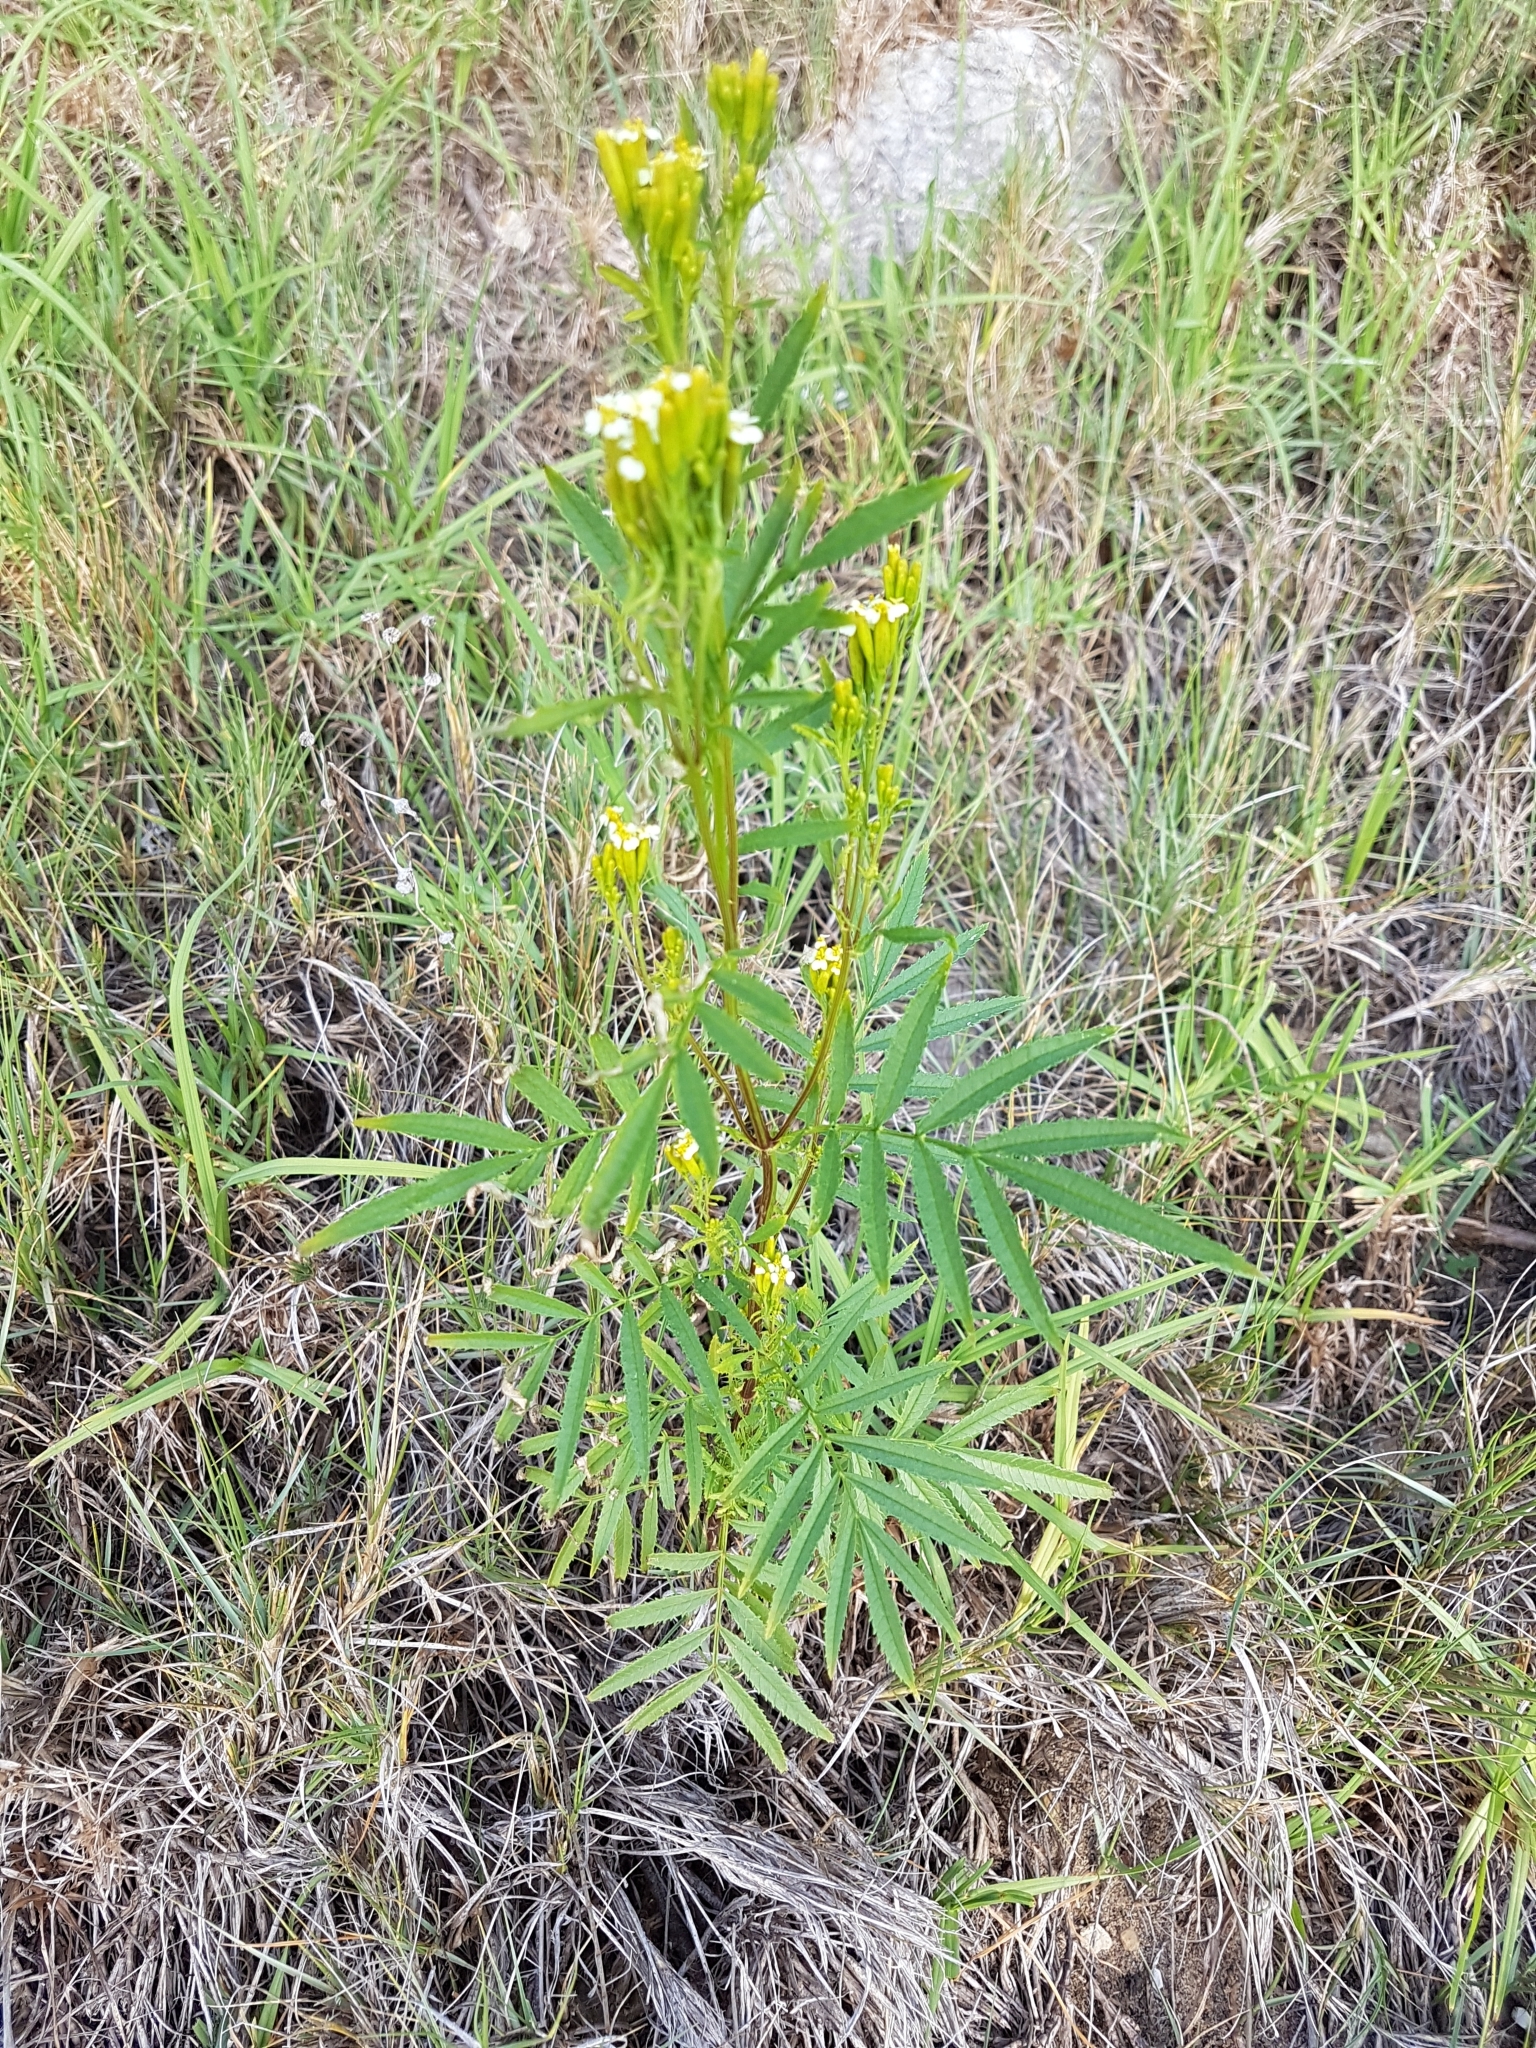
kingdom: Plantae
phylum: Tracheophyta
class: Magnoliopsida
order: Asterales
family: Asteraceae
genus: Tagetes
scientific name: Tagetes minuta
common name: Muster john henry
